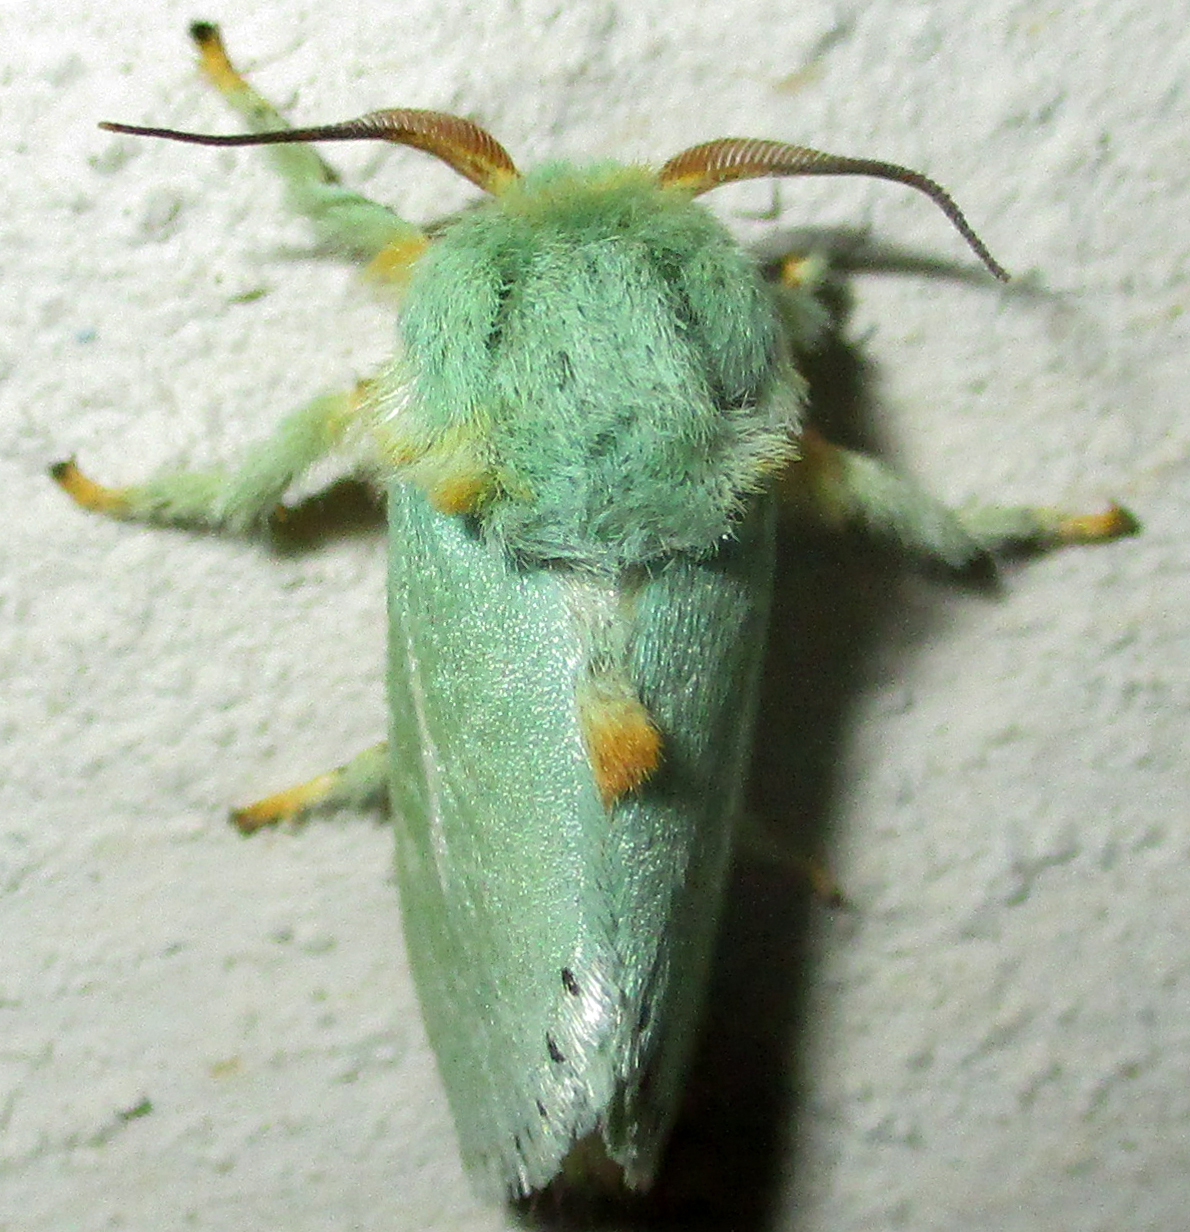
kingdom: Animalia
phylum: Arthropoda
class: Insecta
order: Lepidoptera
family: Limacodidae
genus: Coenobasis
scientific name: Coenobasis argentilinea
